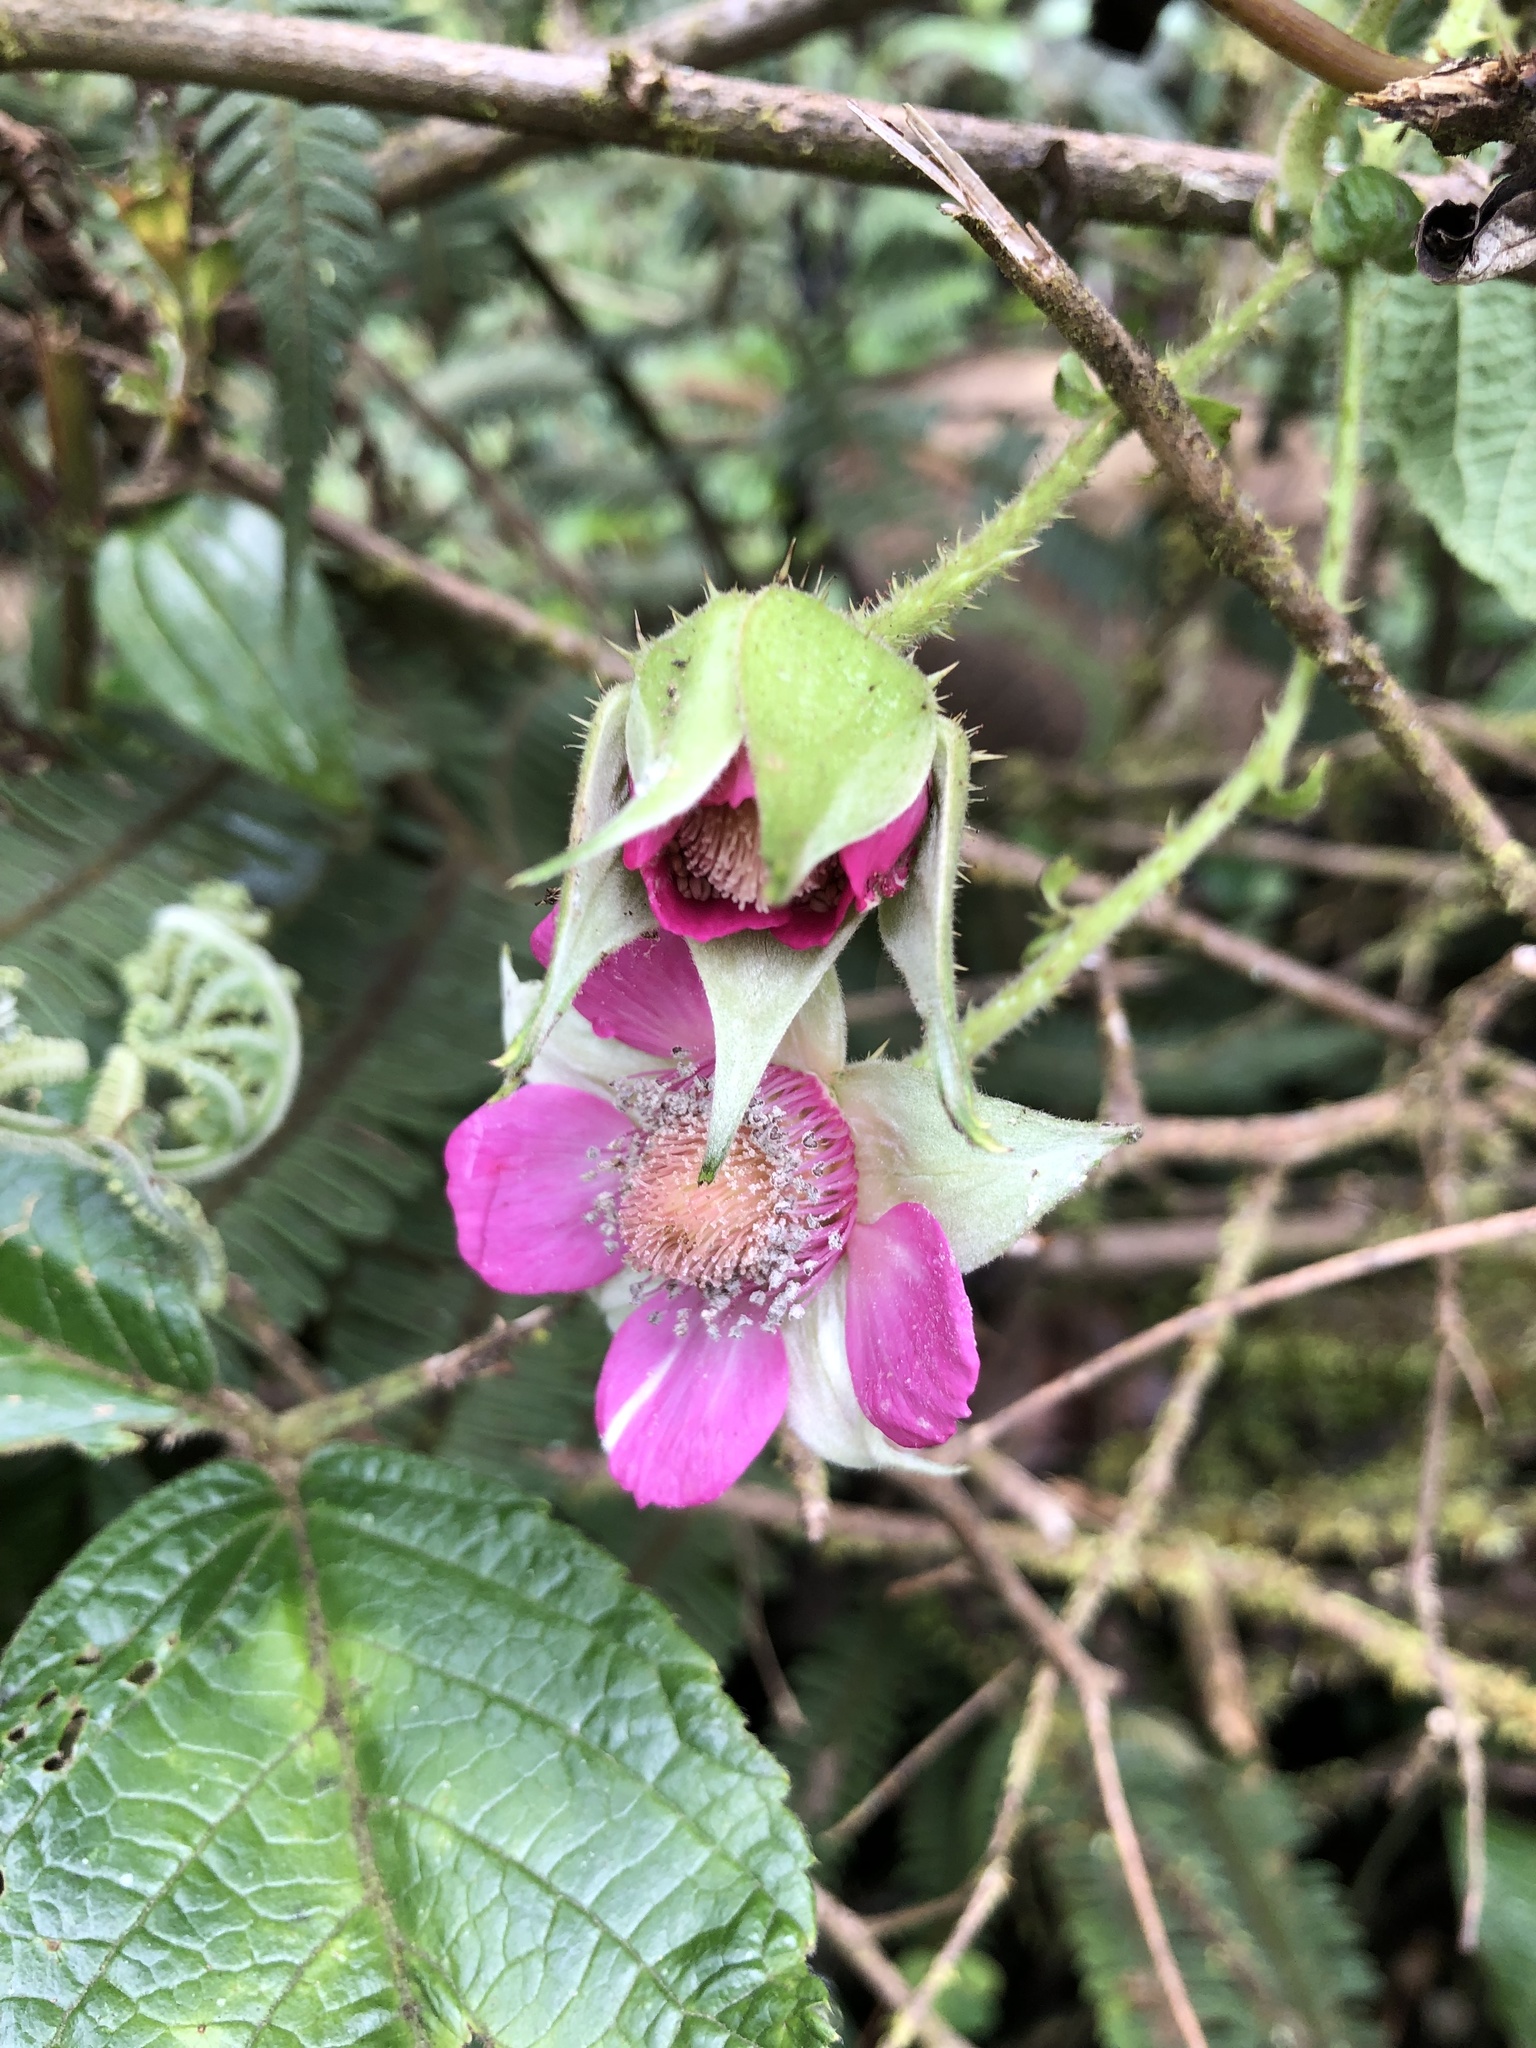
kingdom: Plantae
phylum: Tracheophyta
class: Magnoliopsida
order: Rosales
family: Rosaceae
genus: Rubus
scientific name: Rubus nubigenus
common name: Giant colombian blackberry
